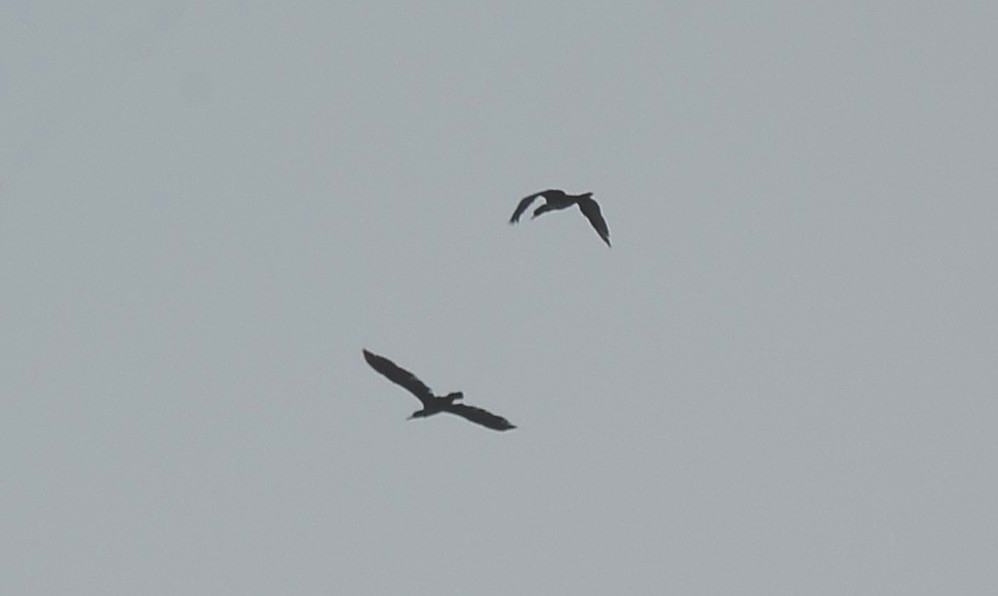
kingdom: Animalia
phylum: Chordata
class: Aves
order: Suliformes
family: Phalacrocoracidae
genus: Phalacrocorax
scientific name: Phalacrocorax fuscicollis
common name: Indian cormorant
